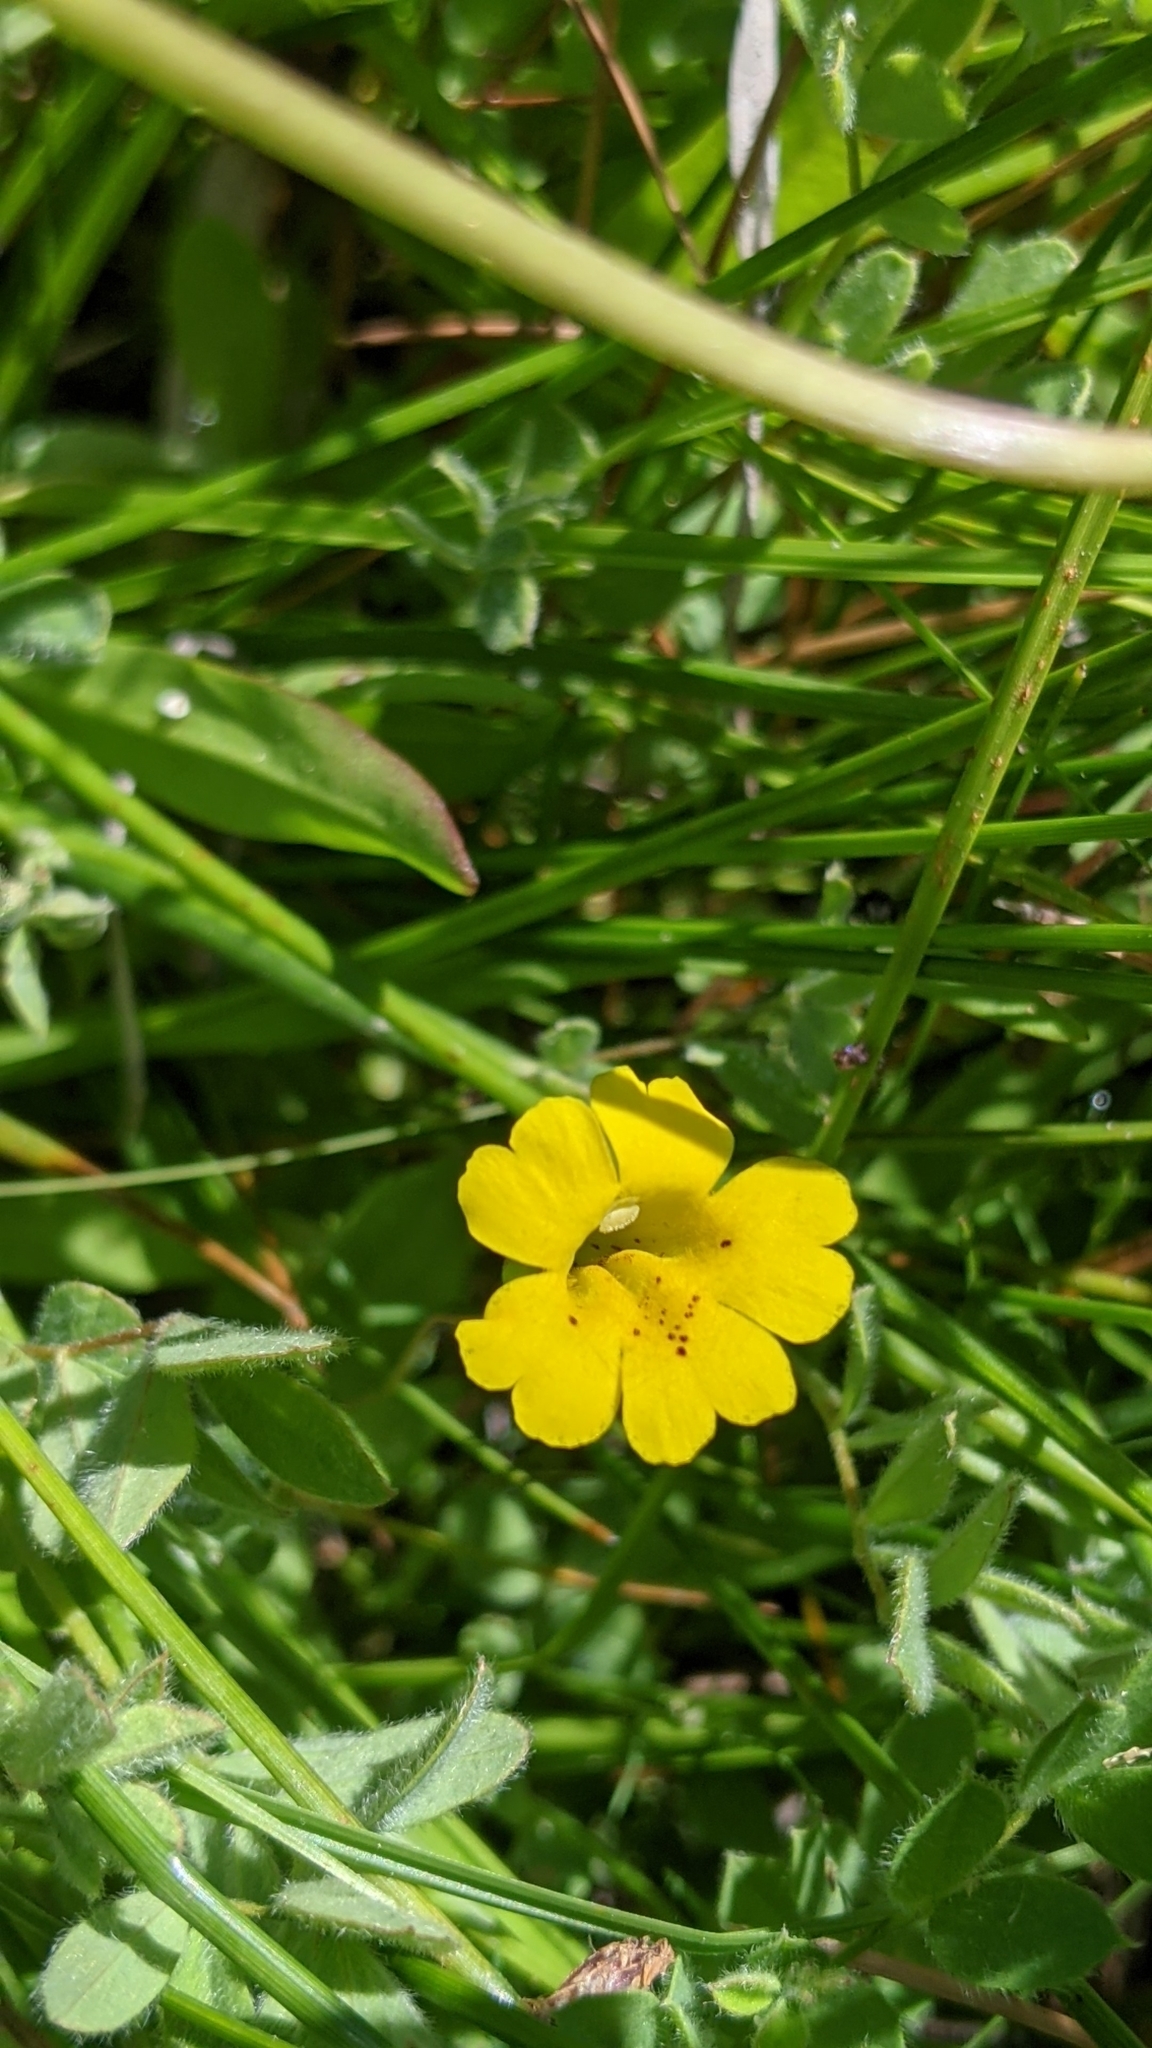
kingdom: Plantae
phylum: Tracheophyta
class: Magnoliopsida
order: Lamiales
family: Phrymaceae
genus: Erythranthe
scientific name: Erythranthe primuloides
